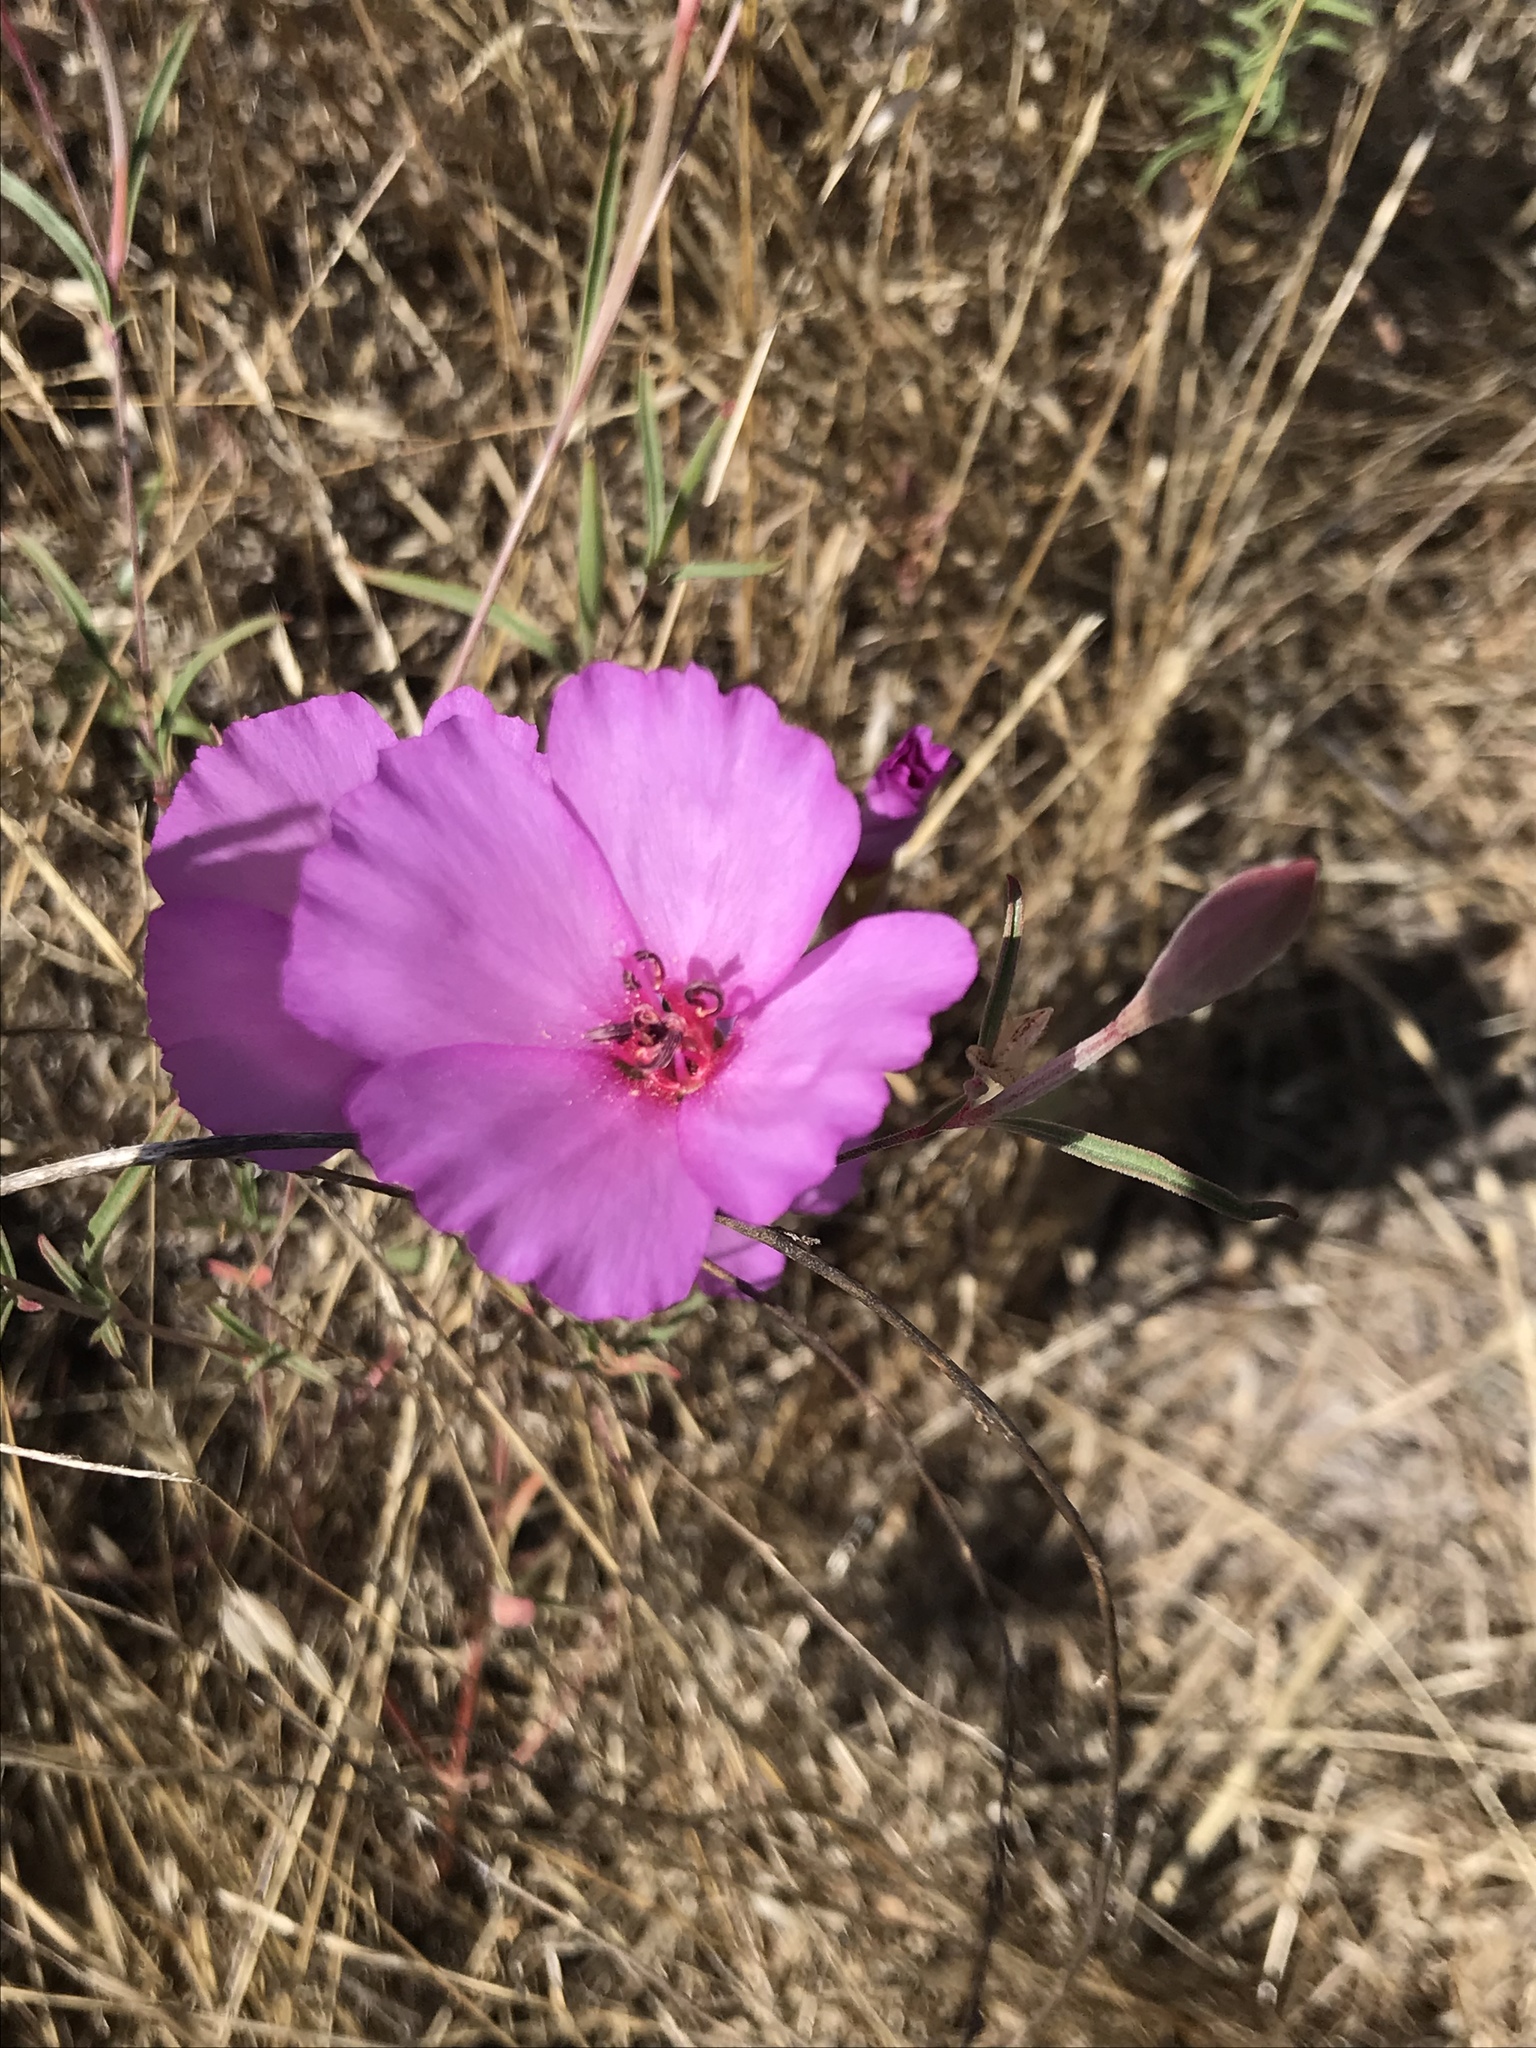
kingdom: Plantae
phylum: Tracheophyta
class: Magnoliopsida
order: Myrtales
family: Onagraceae
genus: Clarkia
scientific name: Clarkia rubicunda
